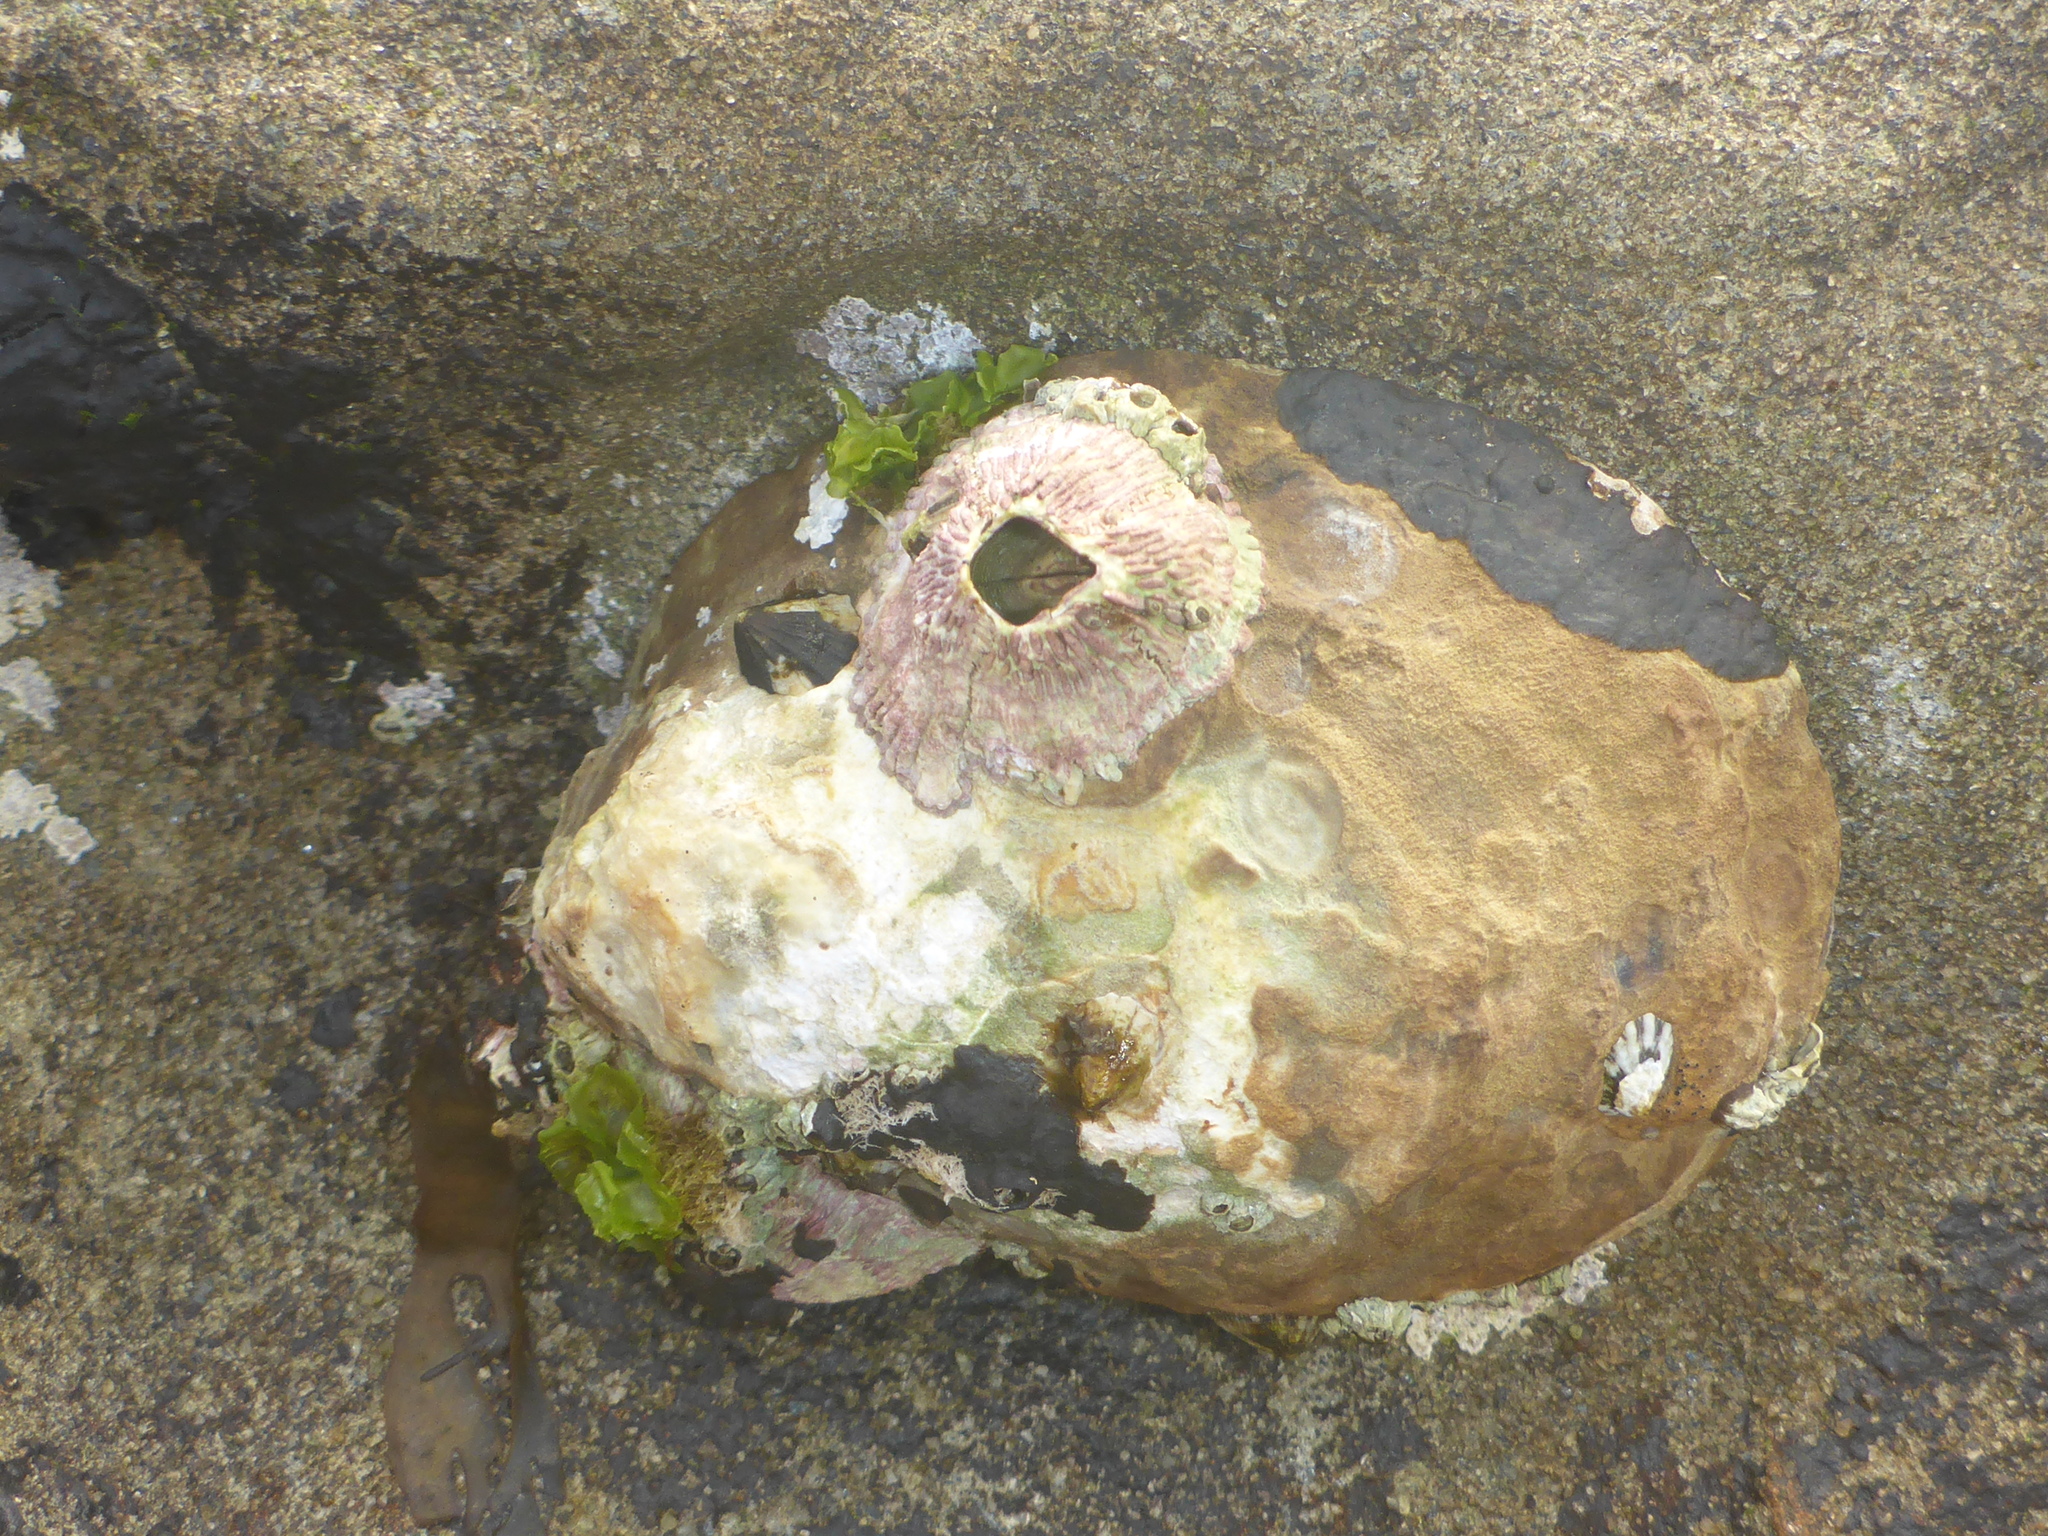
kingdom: Animalia
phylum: Mollusca
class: Gastropoda
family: Lottiidae
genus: Lottia
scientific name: Lottia gigantea
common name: Owl limpet
